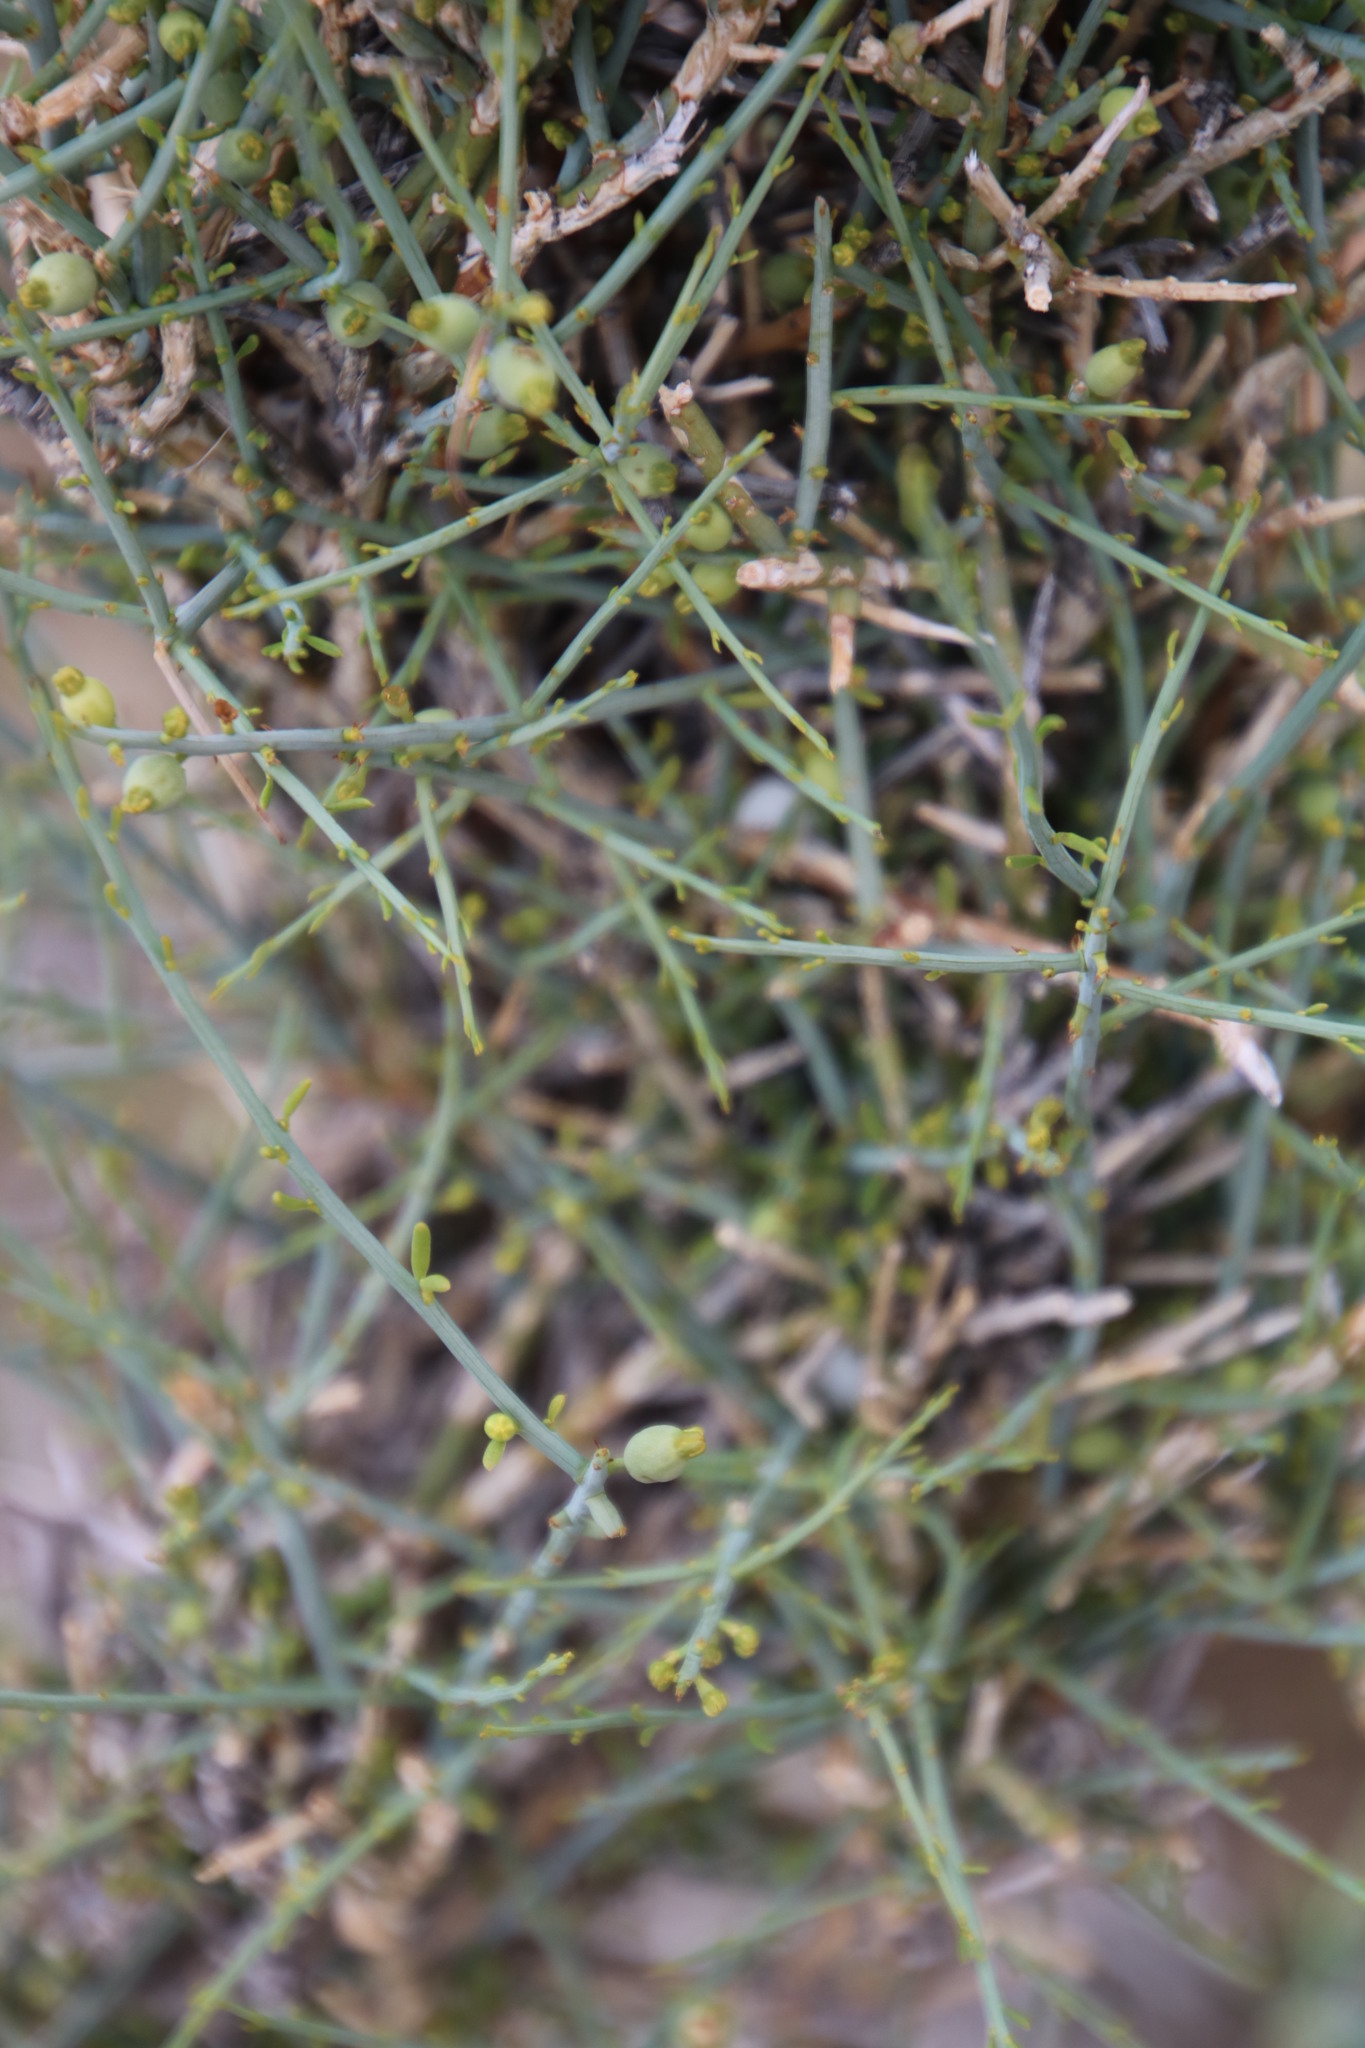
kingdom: Plantae
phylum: Tracheophyta
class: Magnoliopsida
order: Santalales
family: Thesiaceae
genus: Lacomucinaea
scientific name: Lacomucinaea lineata
